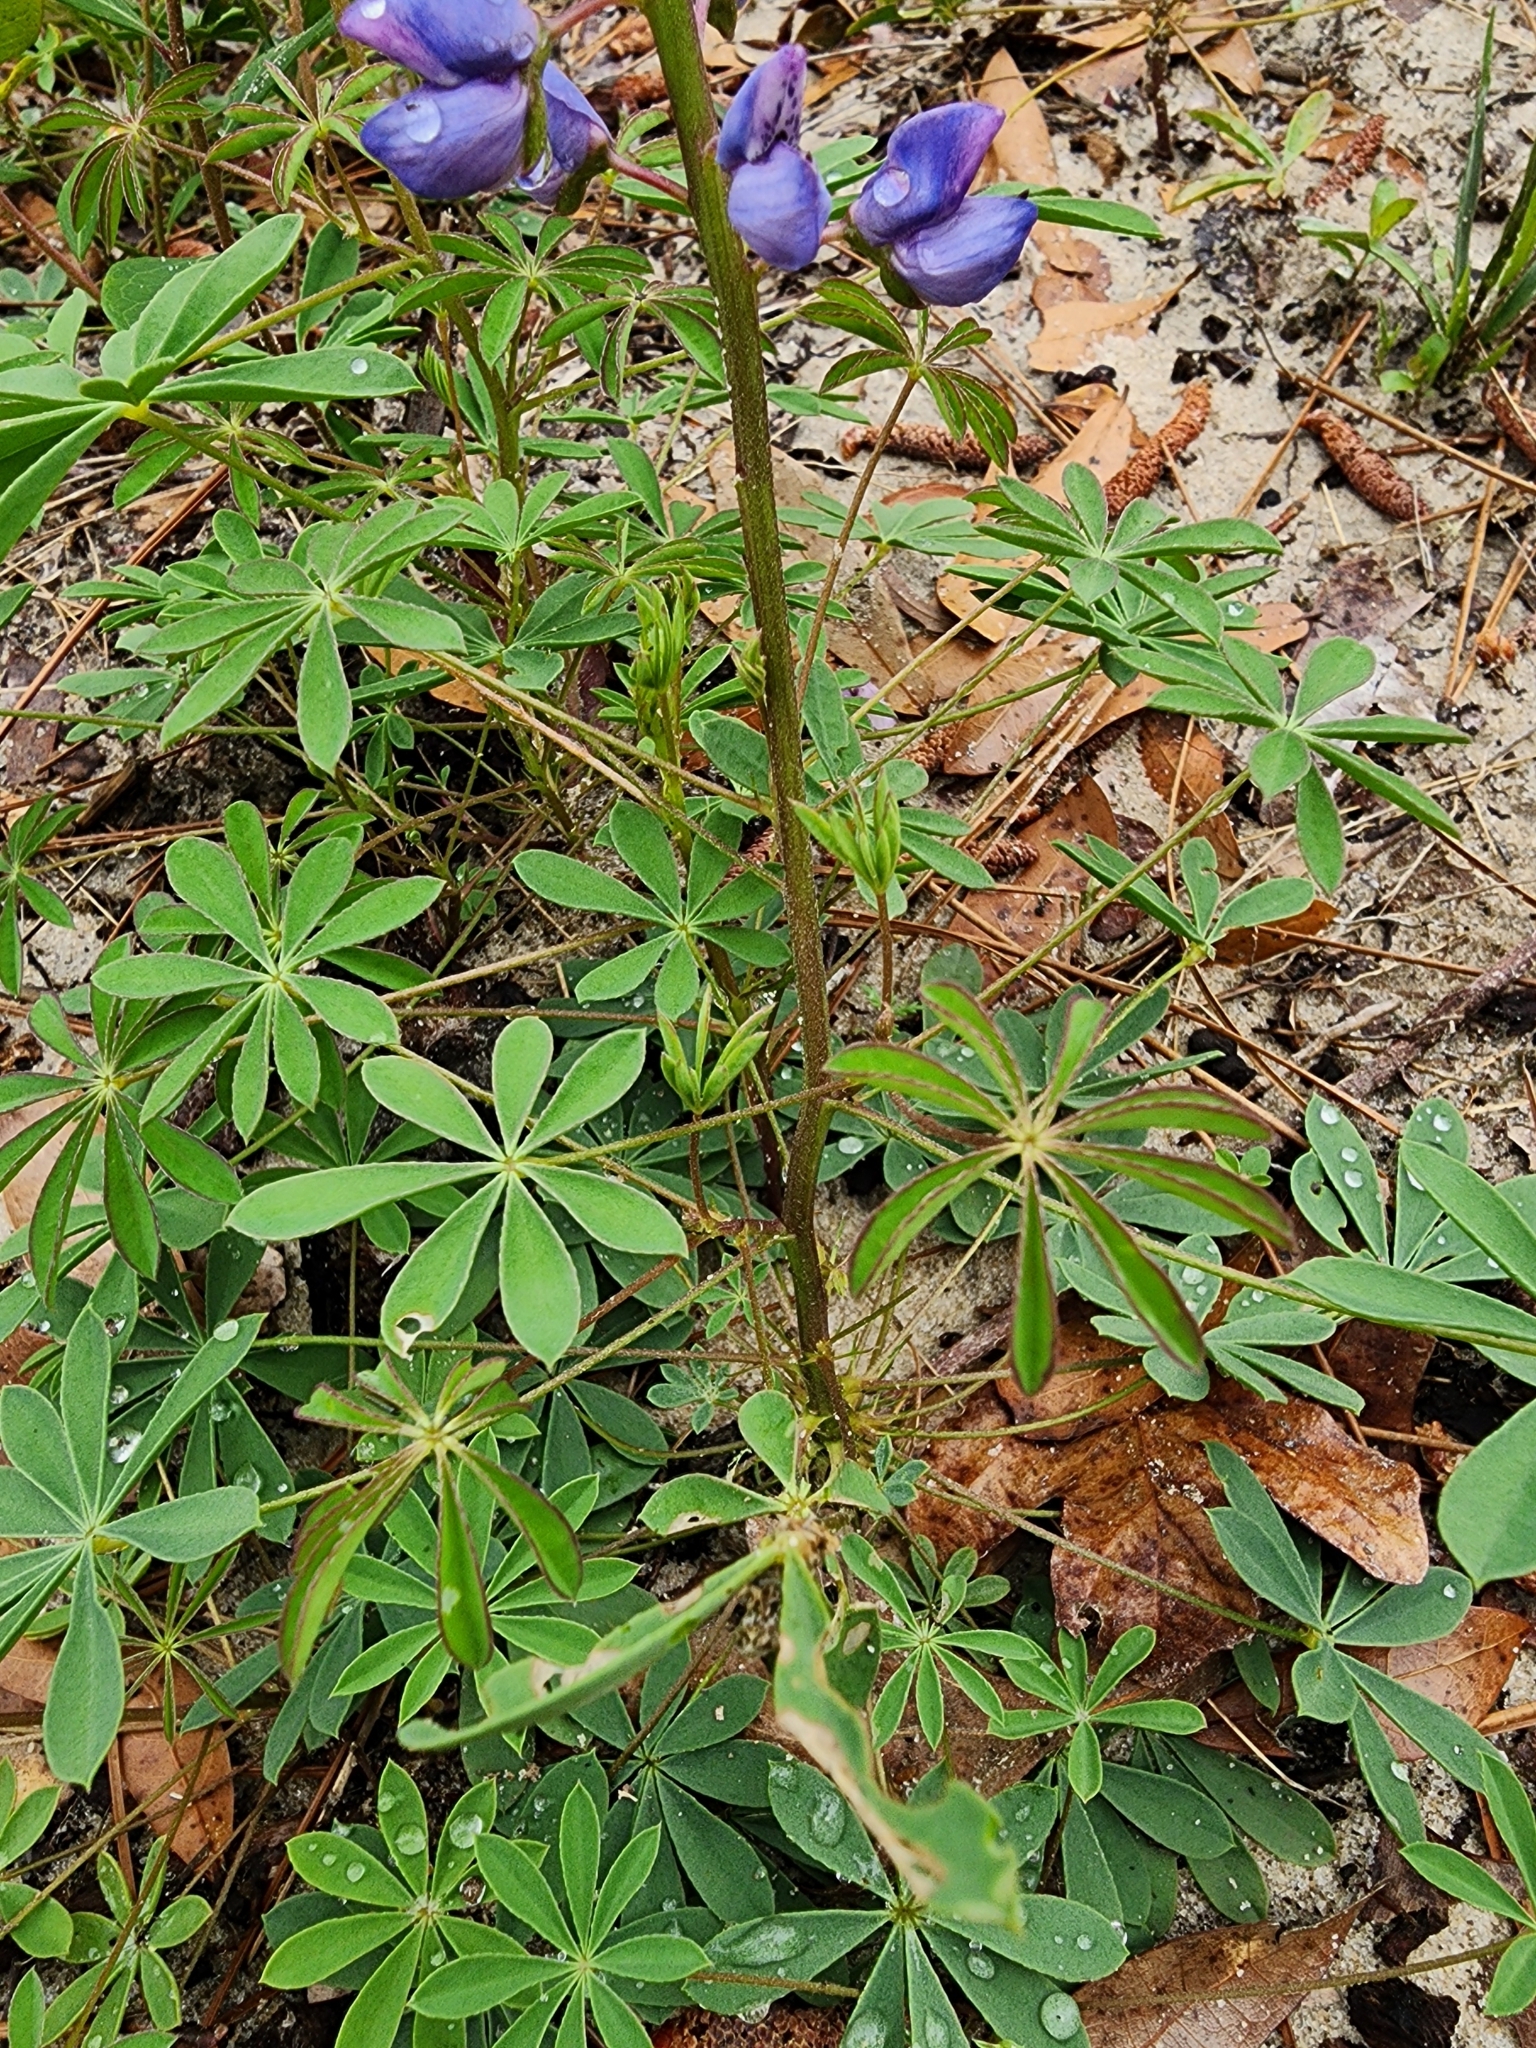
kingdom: Plantae
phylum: Tracheophyta
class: Magnoliopsida
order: Fabales
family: Fabaceae
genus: Lupinus
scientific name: Lupinus perennis
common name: Sundial lupine
